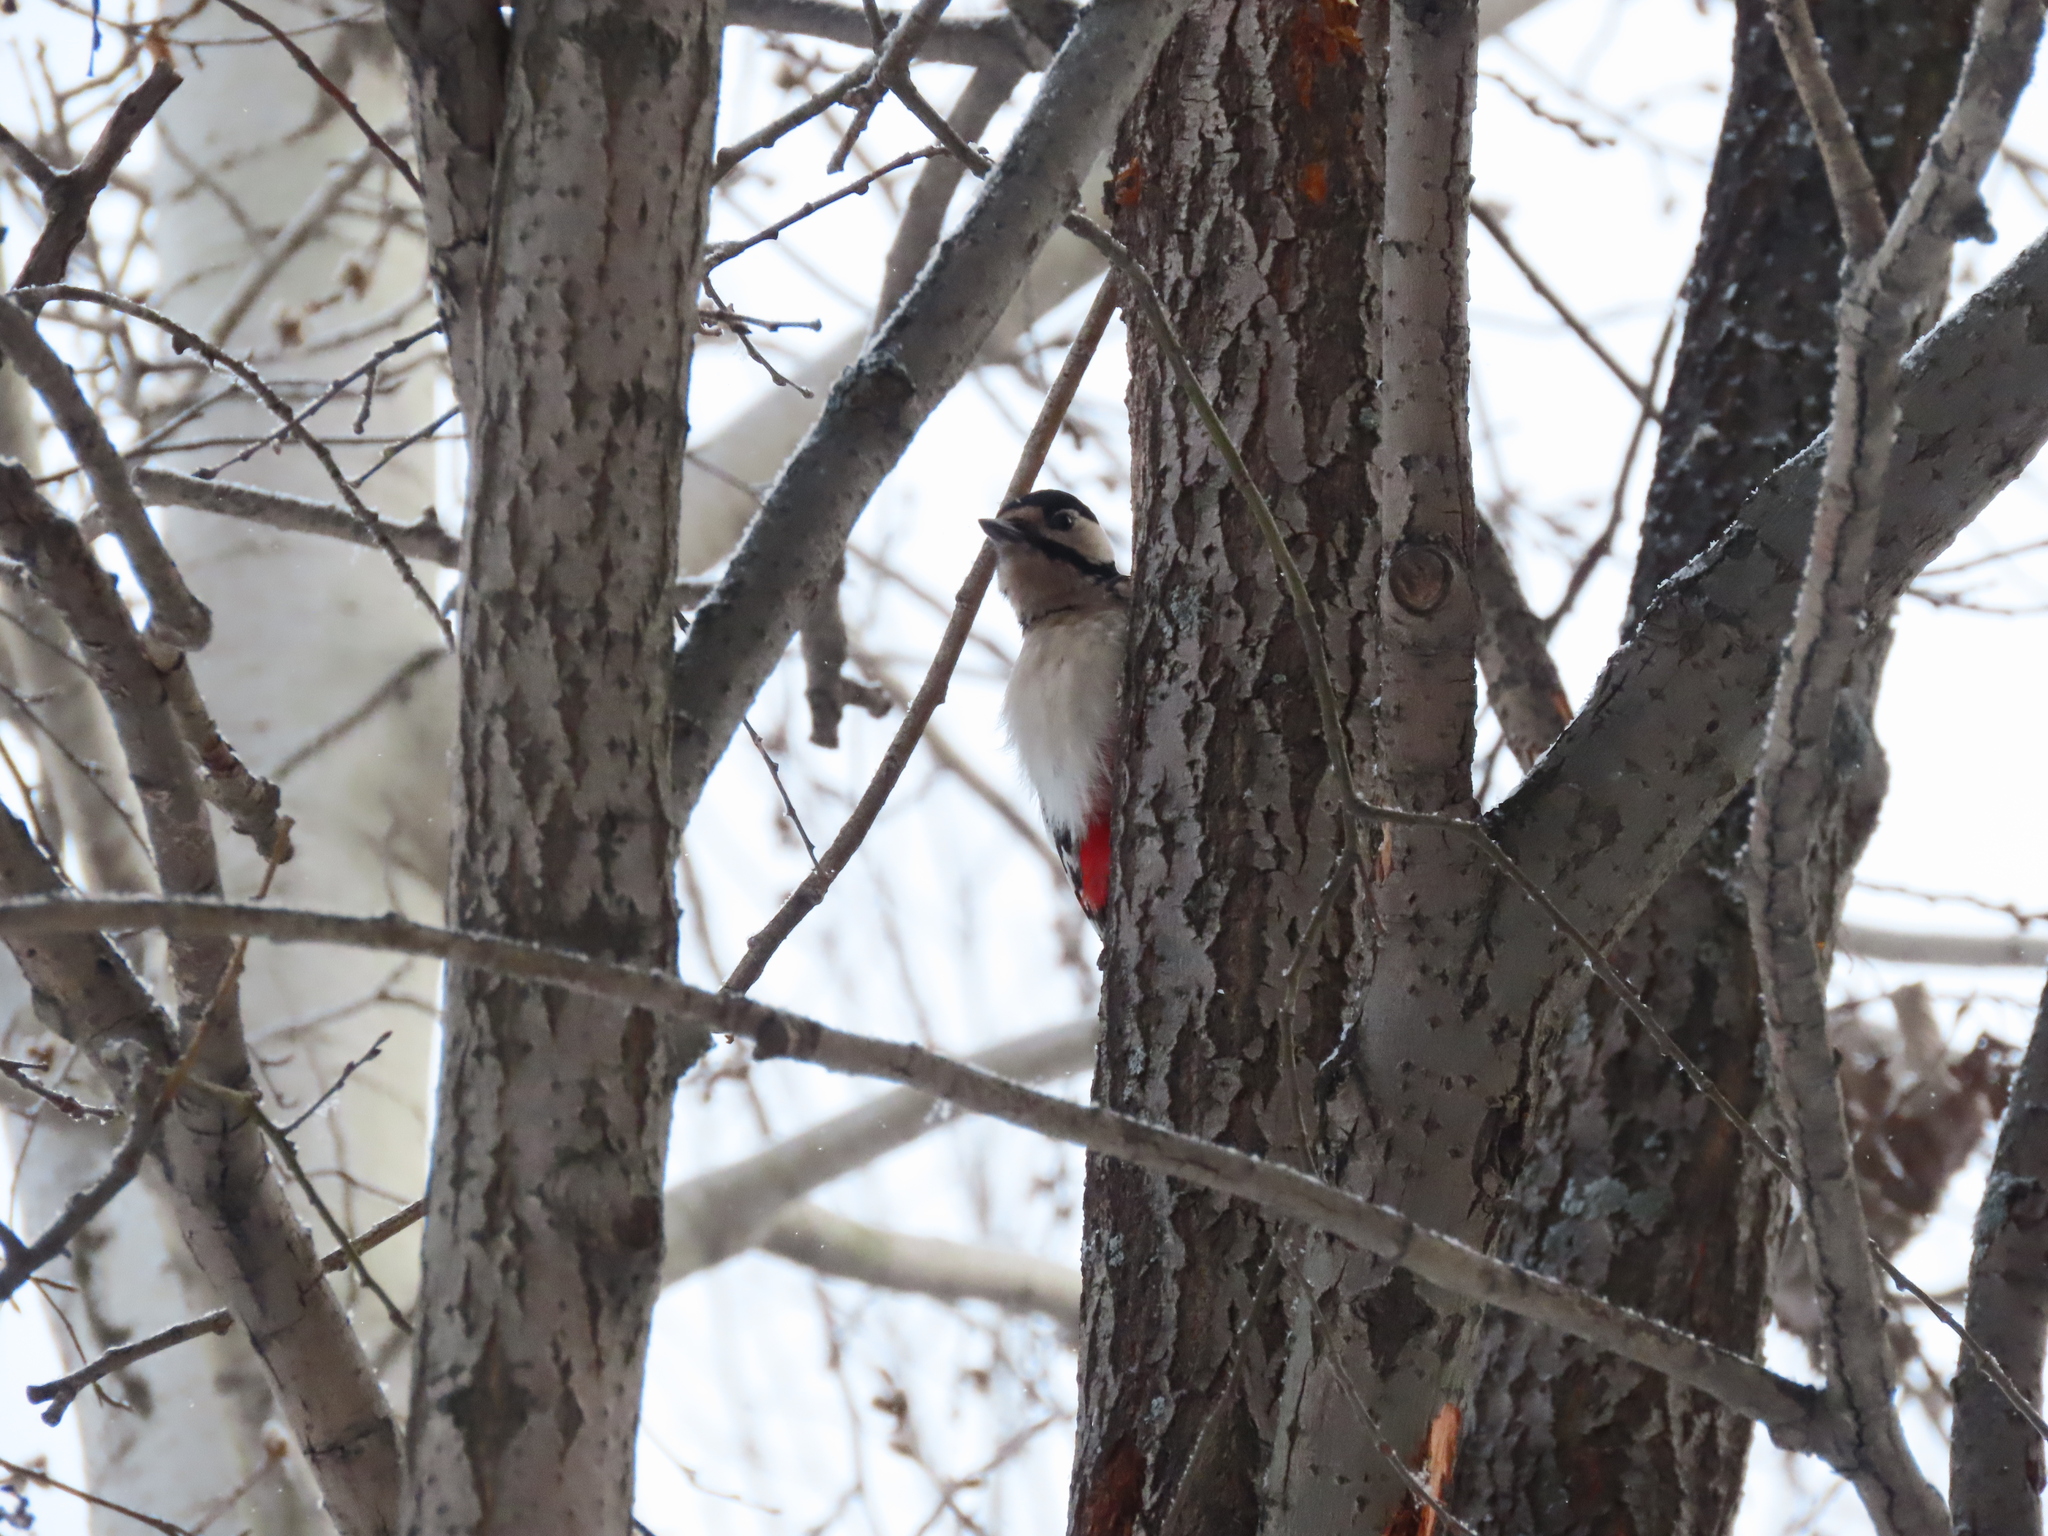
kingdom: Animalia
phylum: Chordata
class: Aves
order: Piciformes
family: Picidae
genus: Dendrocopos
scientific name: Dendrocopos major
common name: Great spotted woodpecker
